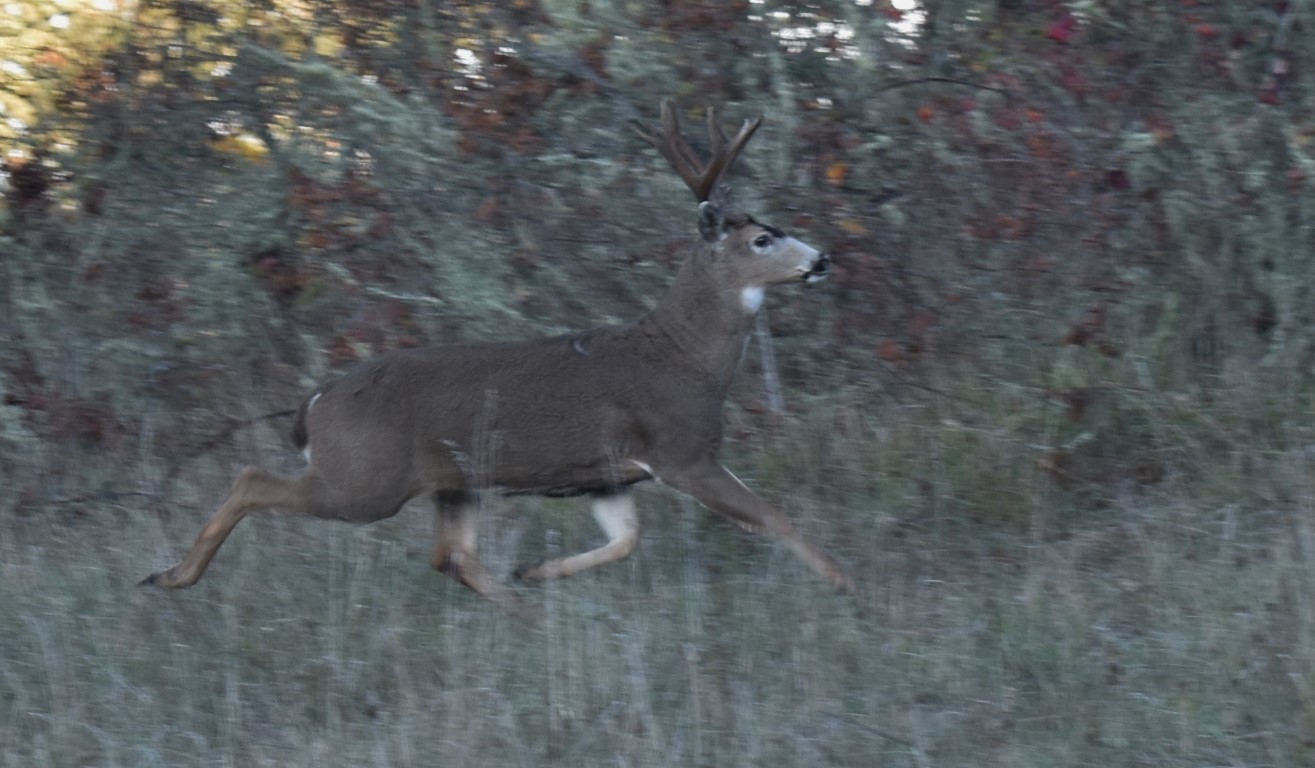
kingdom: Animalia
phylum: Chordata
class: Mammalia
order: Artiodactyla
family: Cervidae
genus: Odocoileus
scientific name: Odocoileus hemionus
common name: Mule deer
